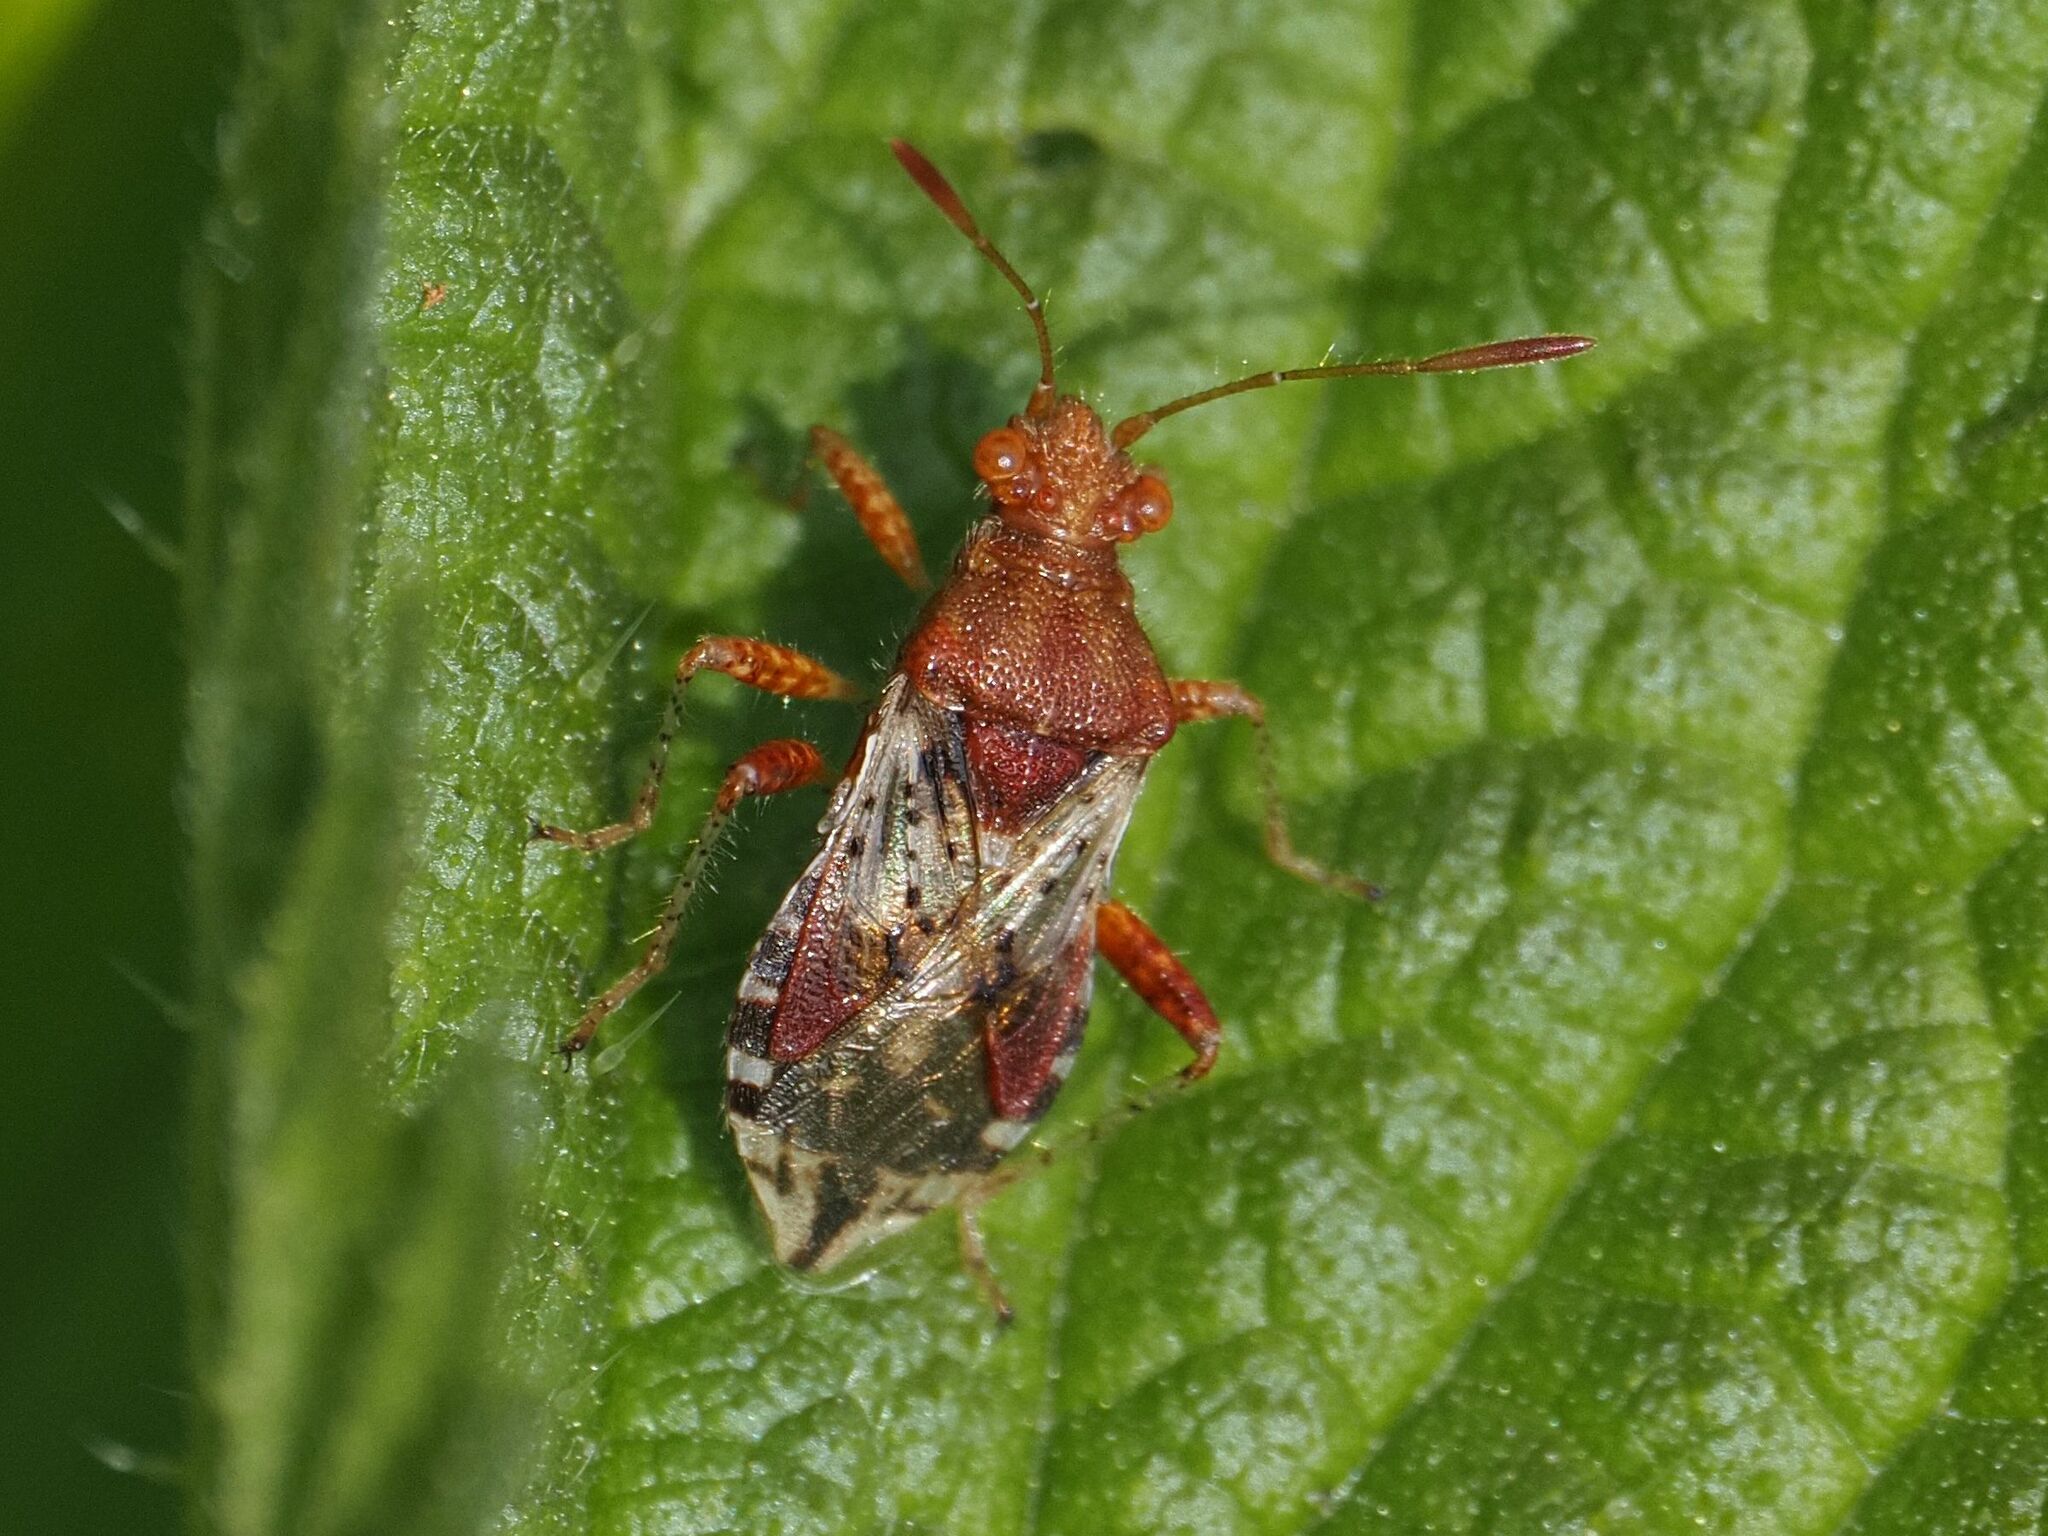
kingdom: Animalia
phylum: Arthropoda
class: Insecta
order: Hemiptera
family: Rhopalidae
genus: Rhopalus
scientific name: Rhopalus subrufus
